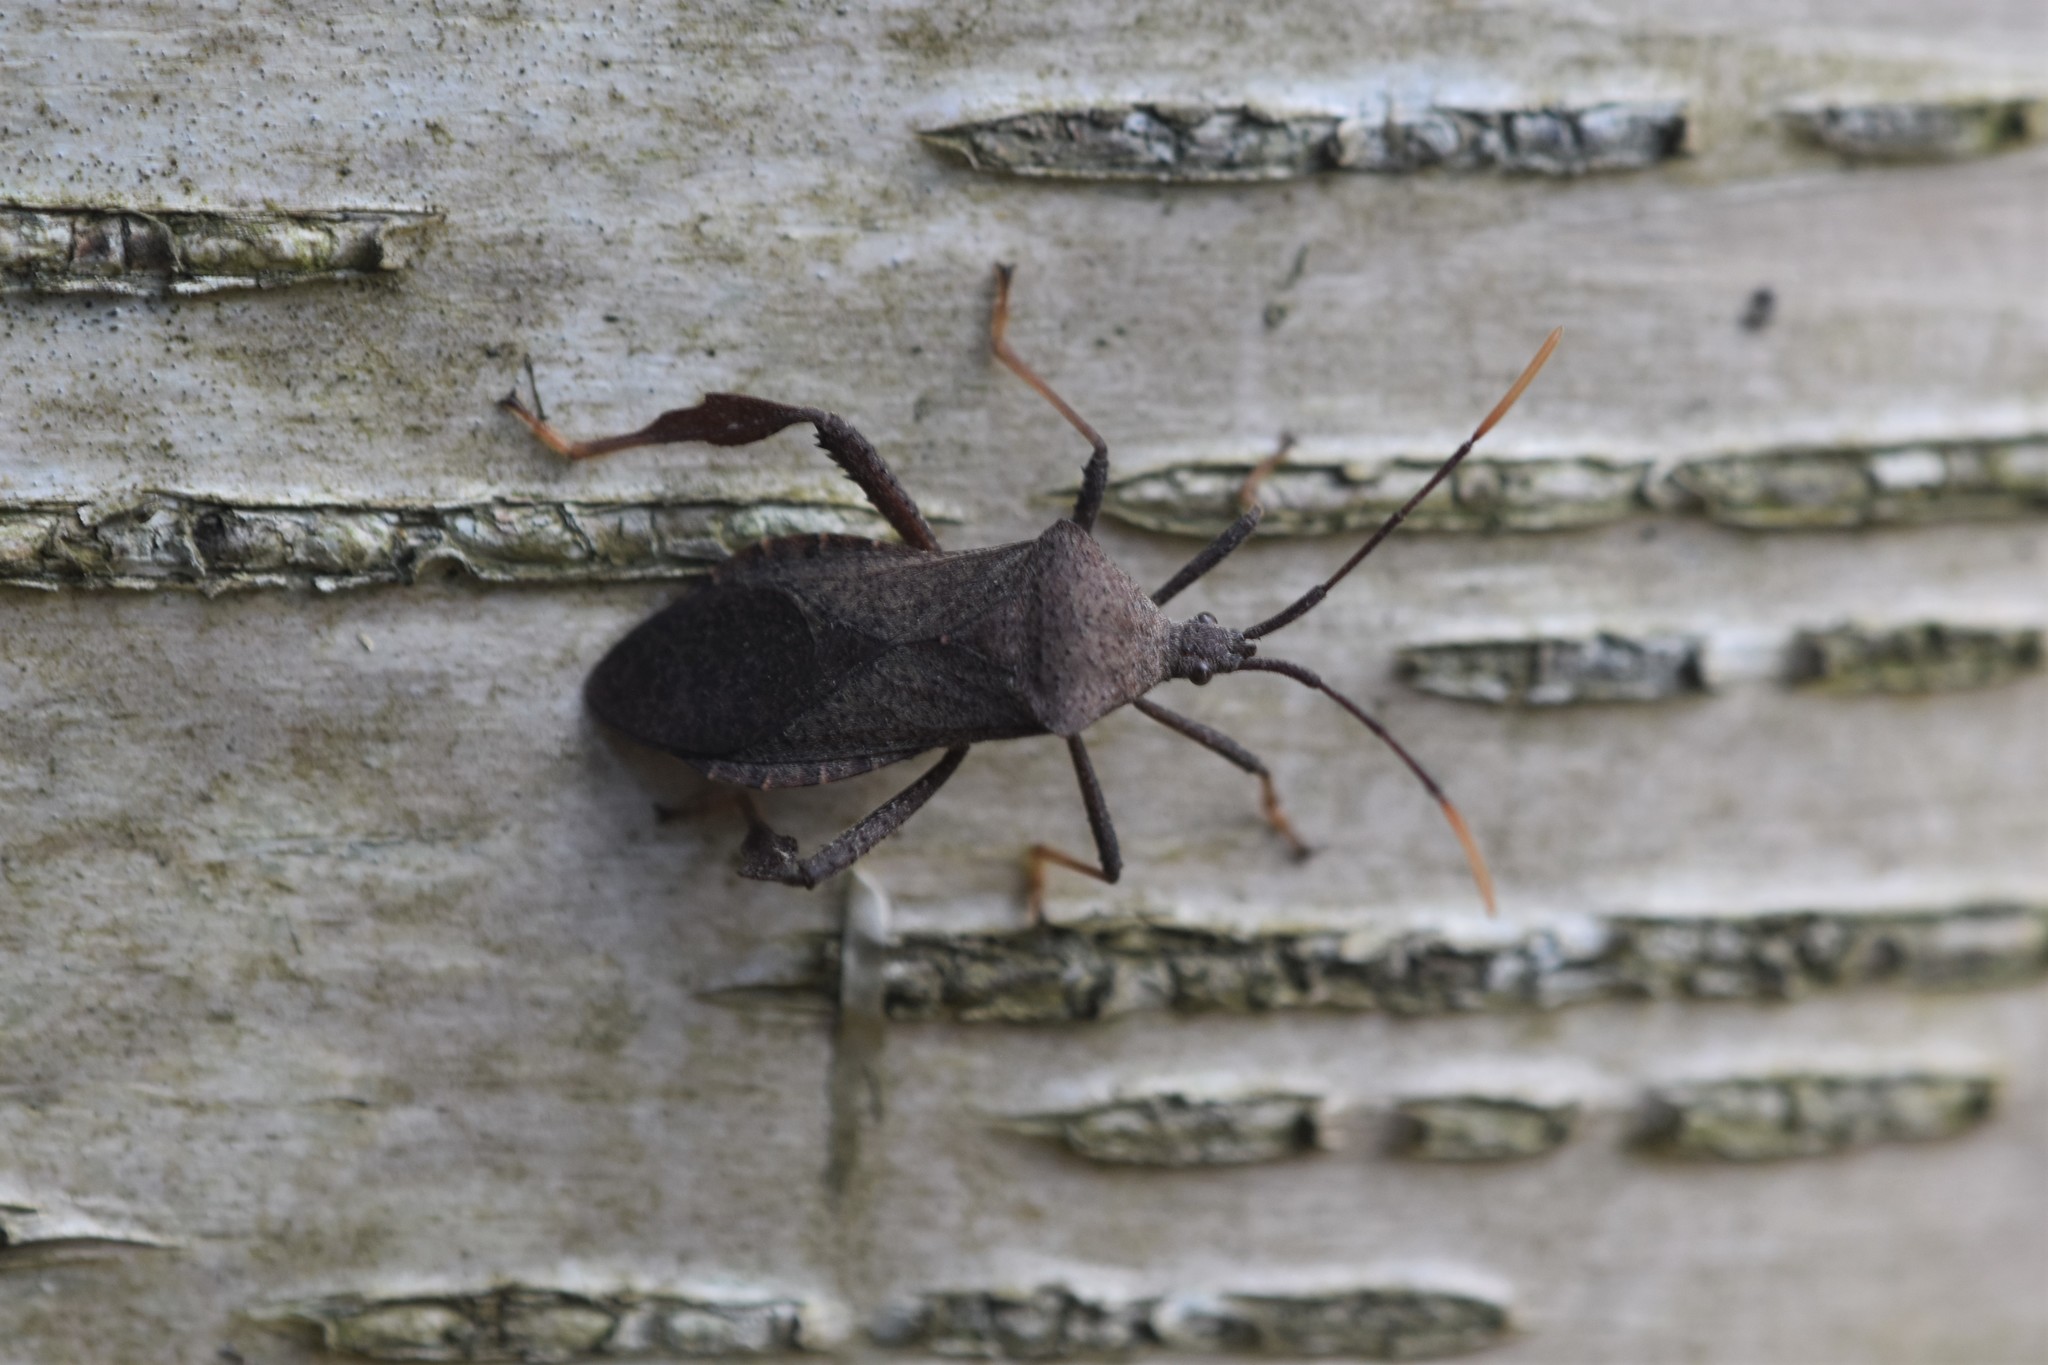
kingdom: Animalia
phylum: Arthropoda
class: Insecta
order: Hemiptera
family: Coreidae
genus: Acanthocephala
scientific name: Acanthocephala terminalis
